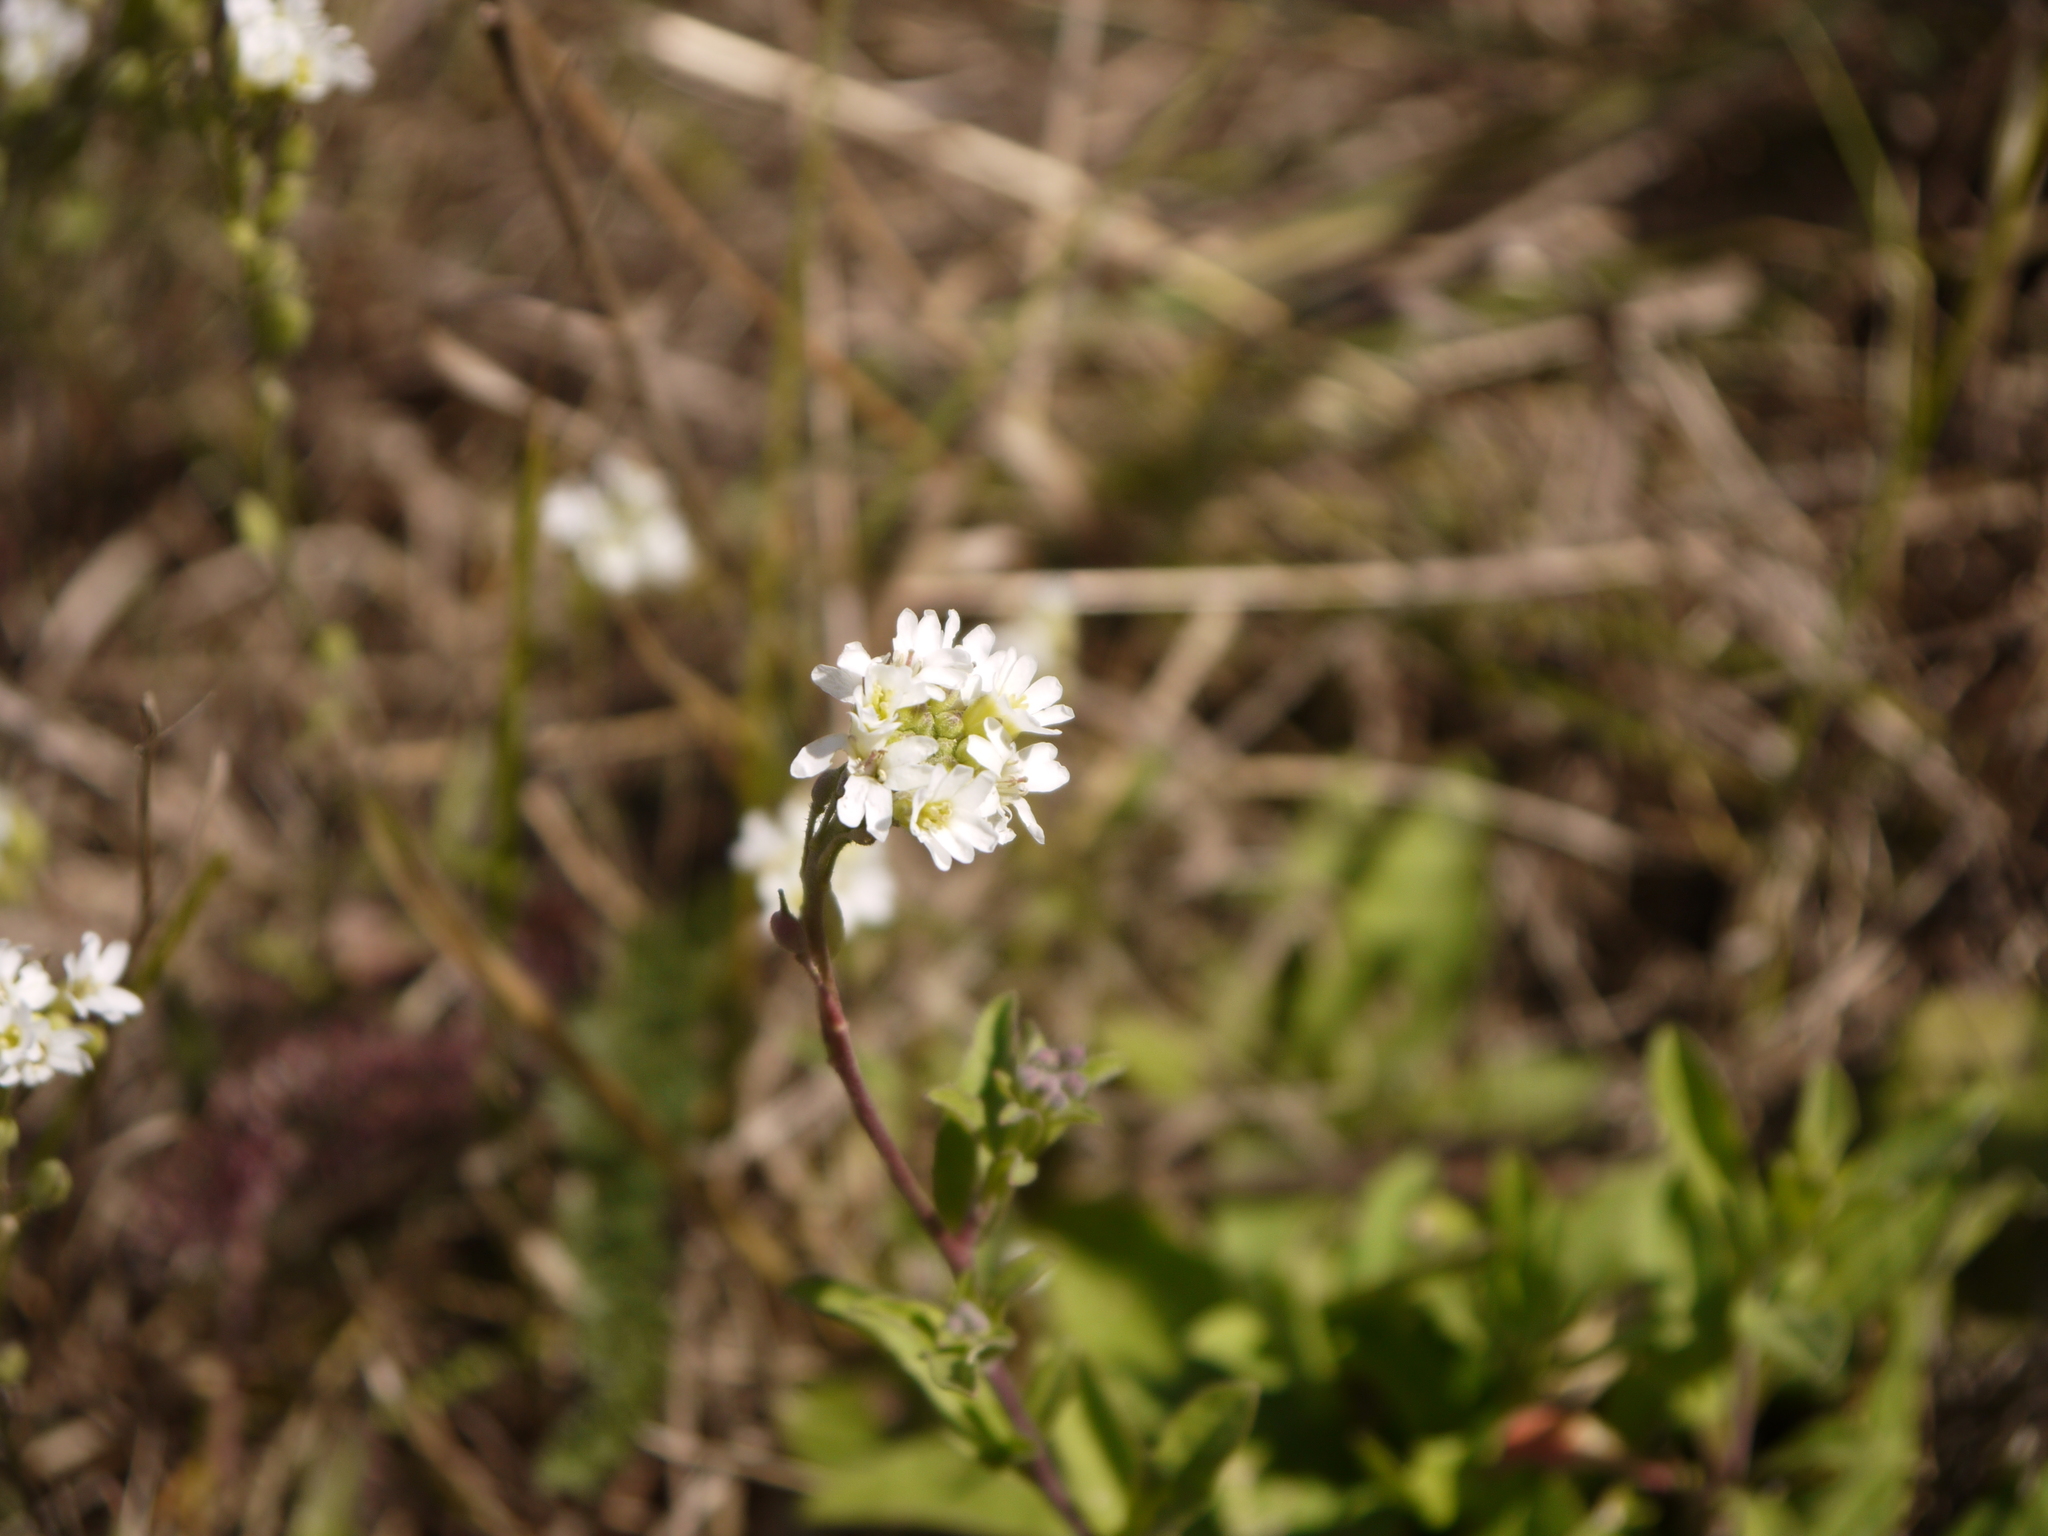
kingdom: Plantae
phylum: Tracheophyta
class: Magnoliopsida
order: Brassicales
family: Brassicaceae
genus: Berteroa
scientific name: Berteroa incana
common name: Hoary alison
